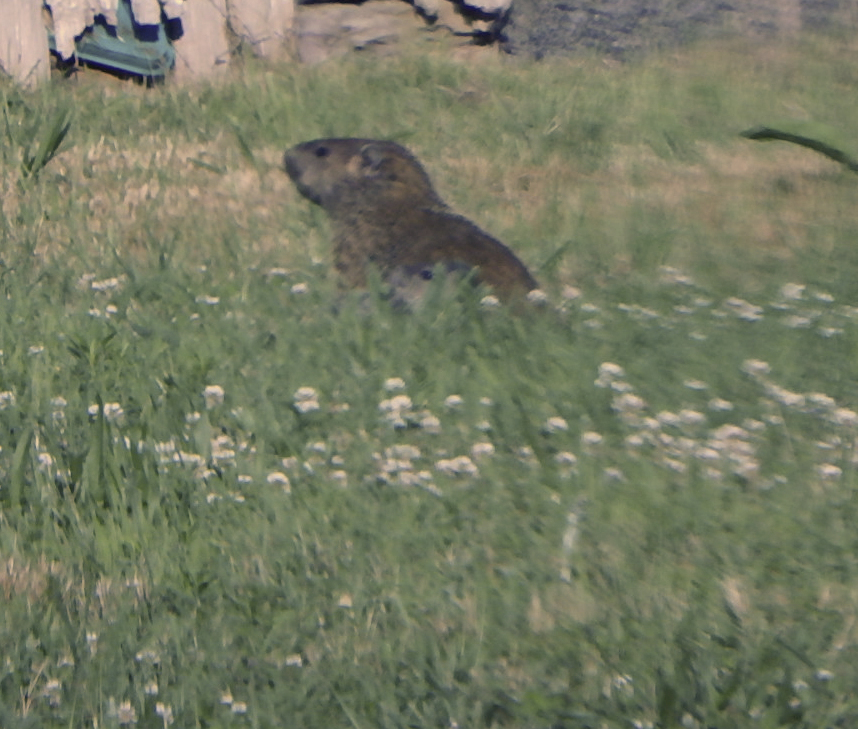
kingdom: Animalia
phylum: Chordata
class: Mammalia
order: Rodentia
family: Sciuridae
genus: Marmota
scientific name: Marmota monax
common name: Groundhog
